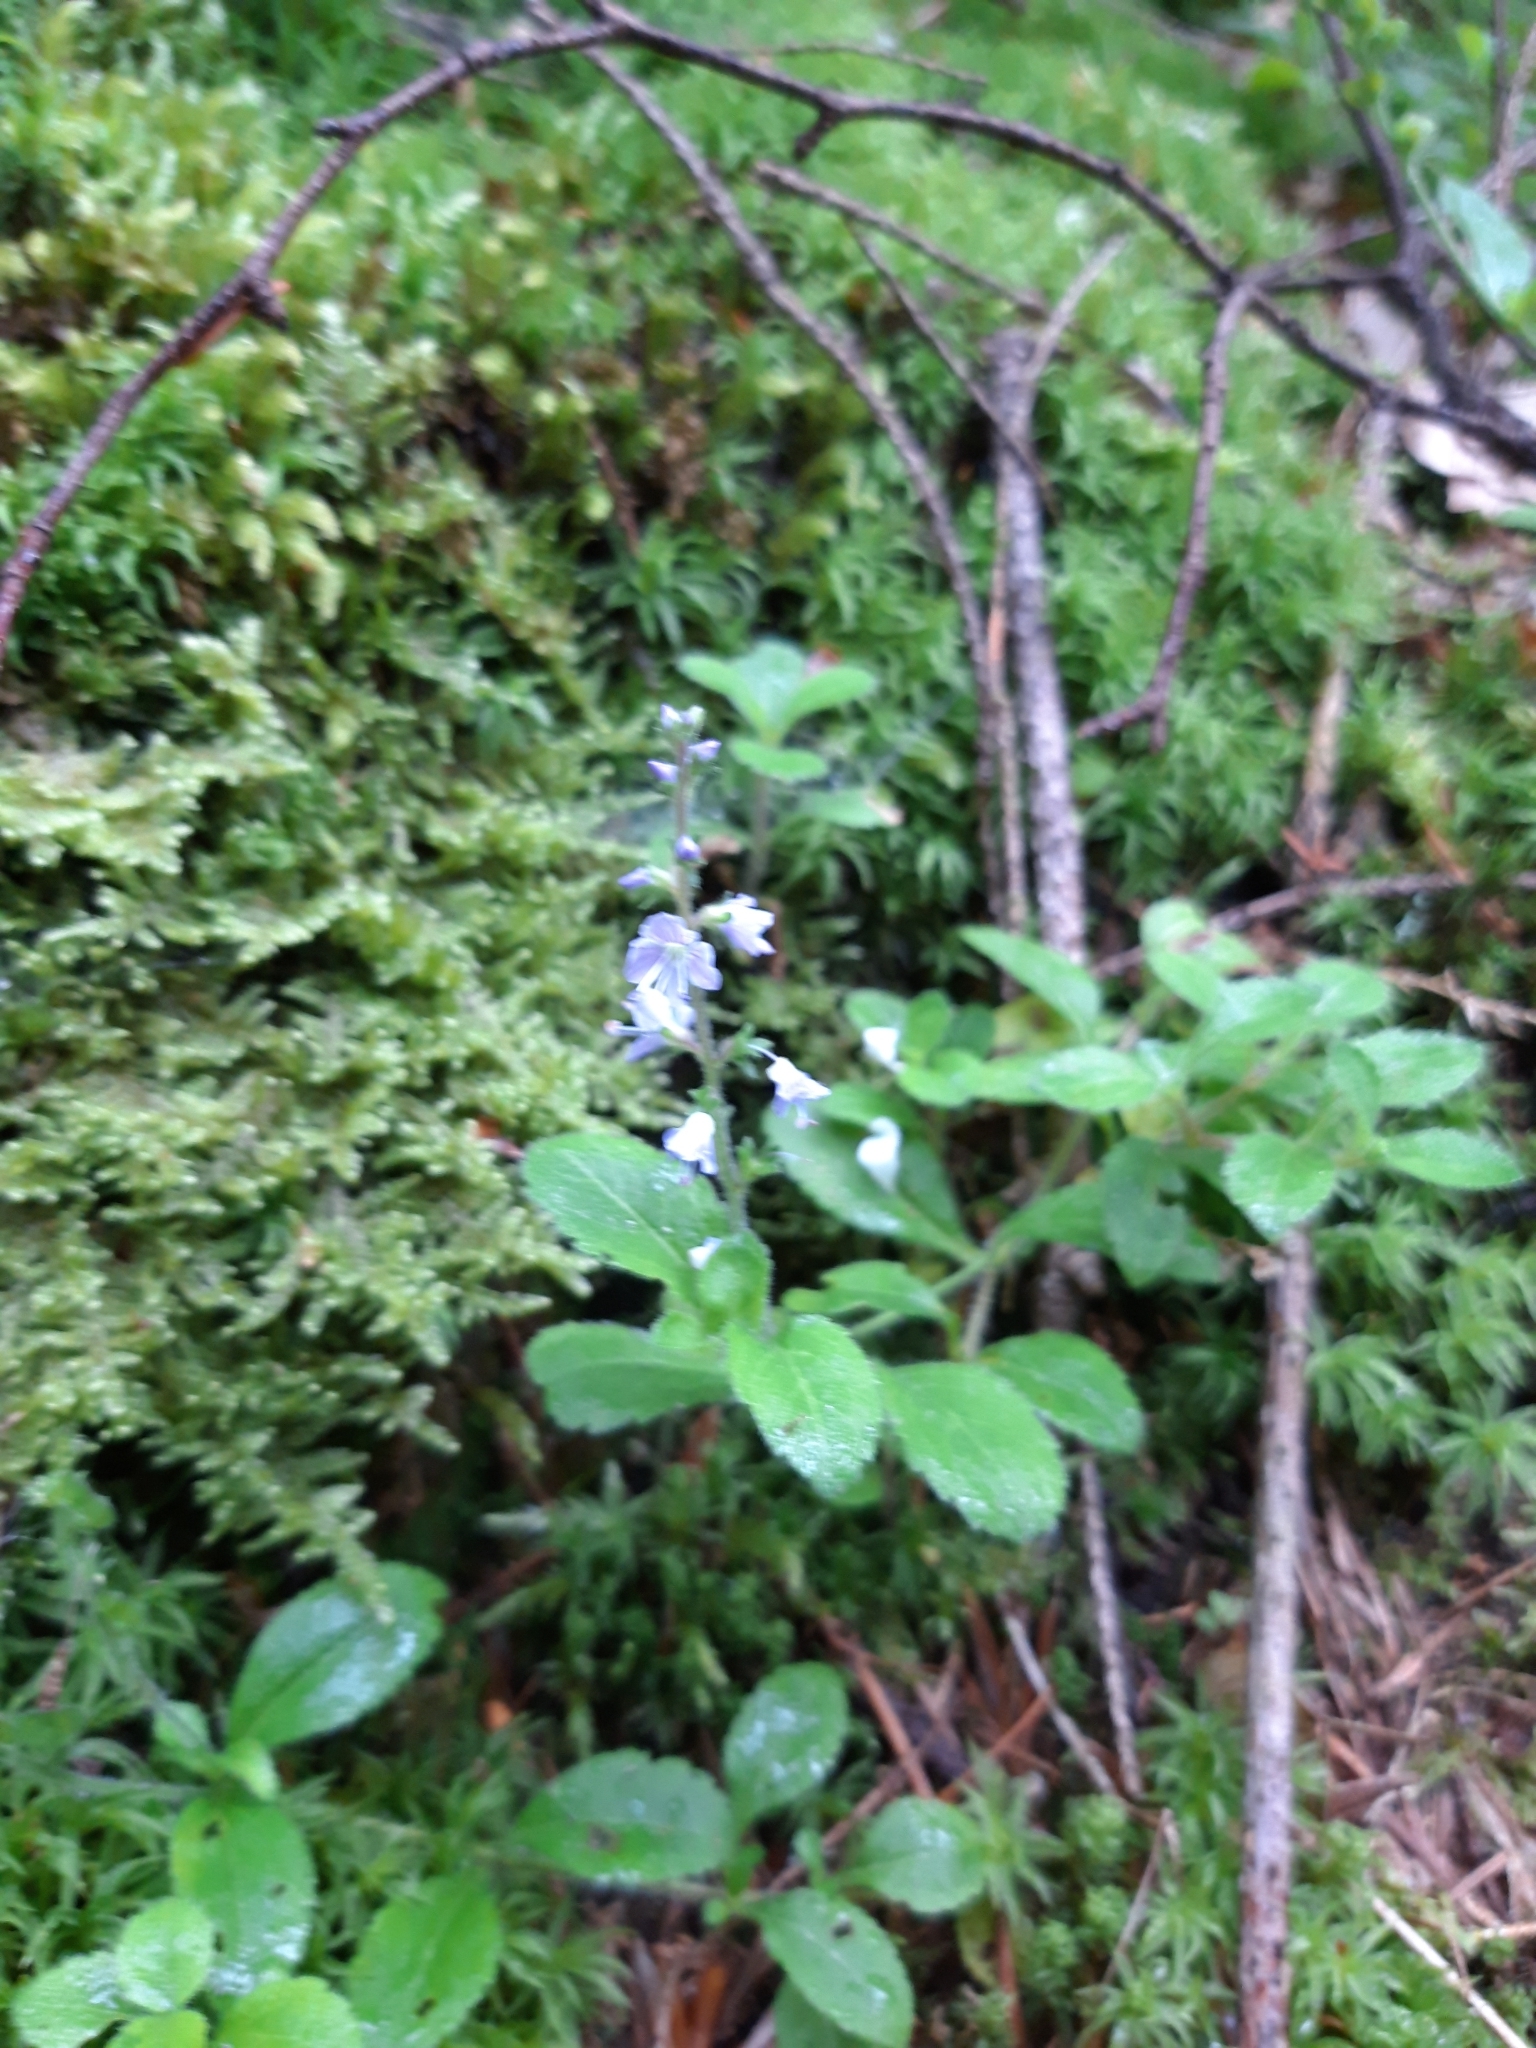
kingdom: Plantae
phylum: Tracheophyta
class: Magnoliopsida
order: Lamiales
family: Plantaginaceae
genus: Veronica
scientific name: Veronica officinalis
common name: Common speedwell
